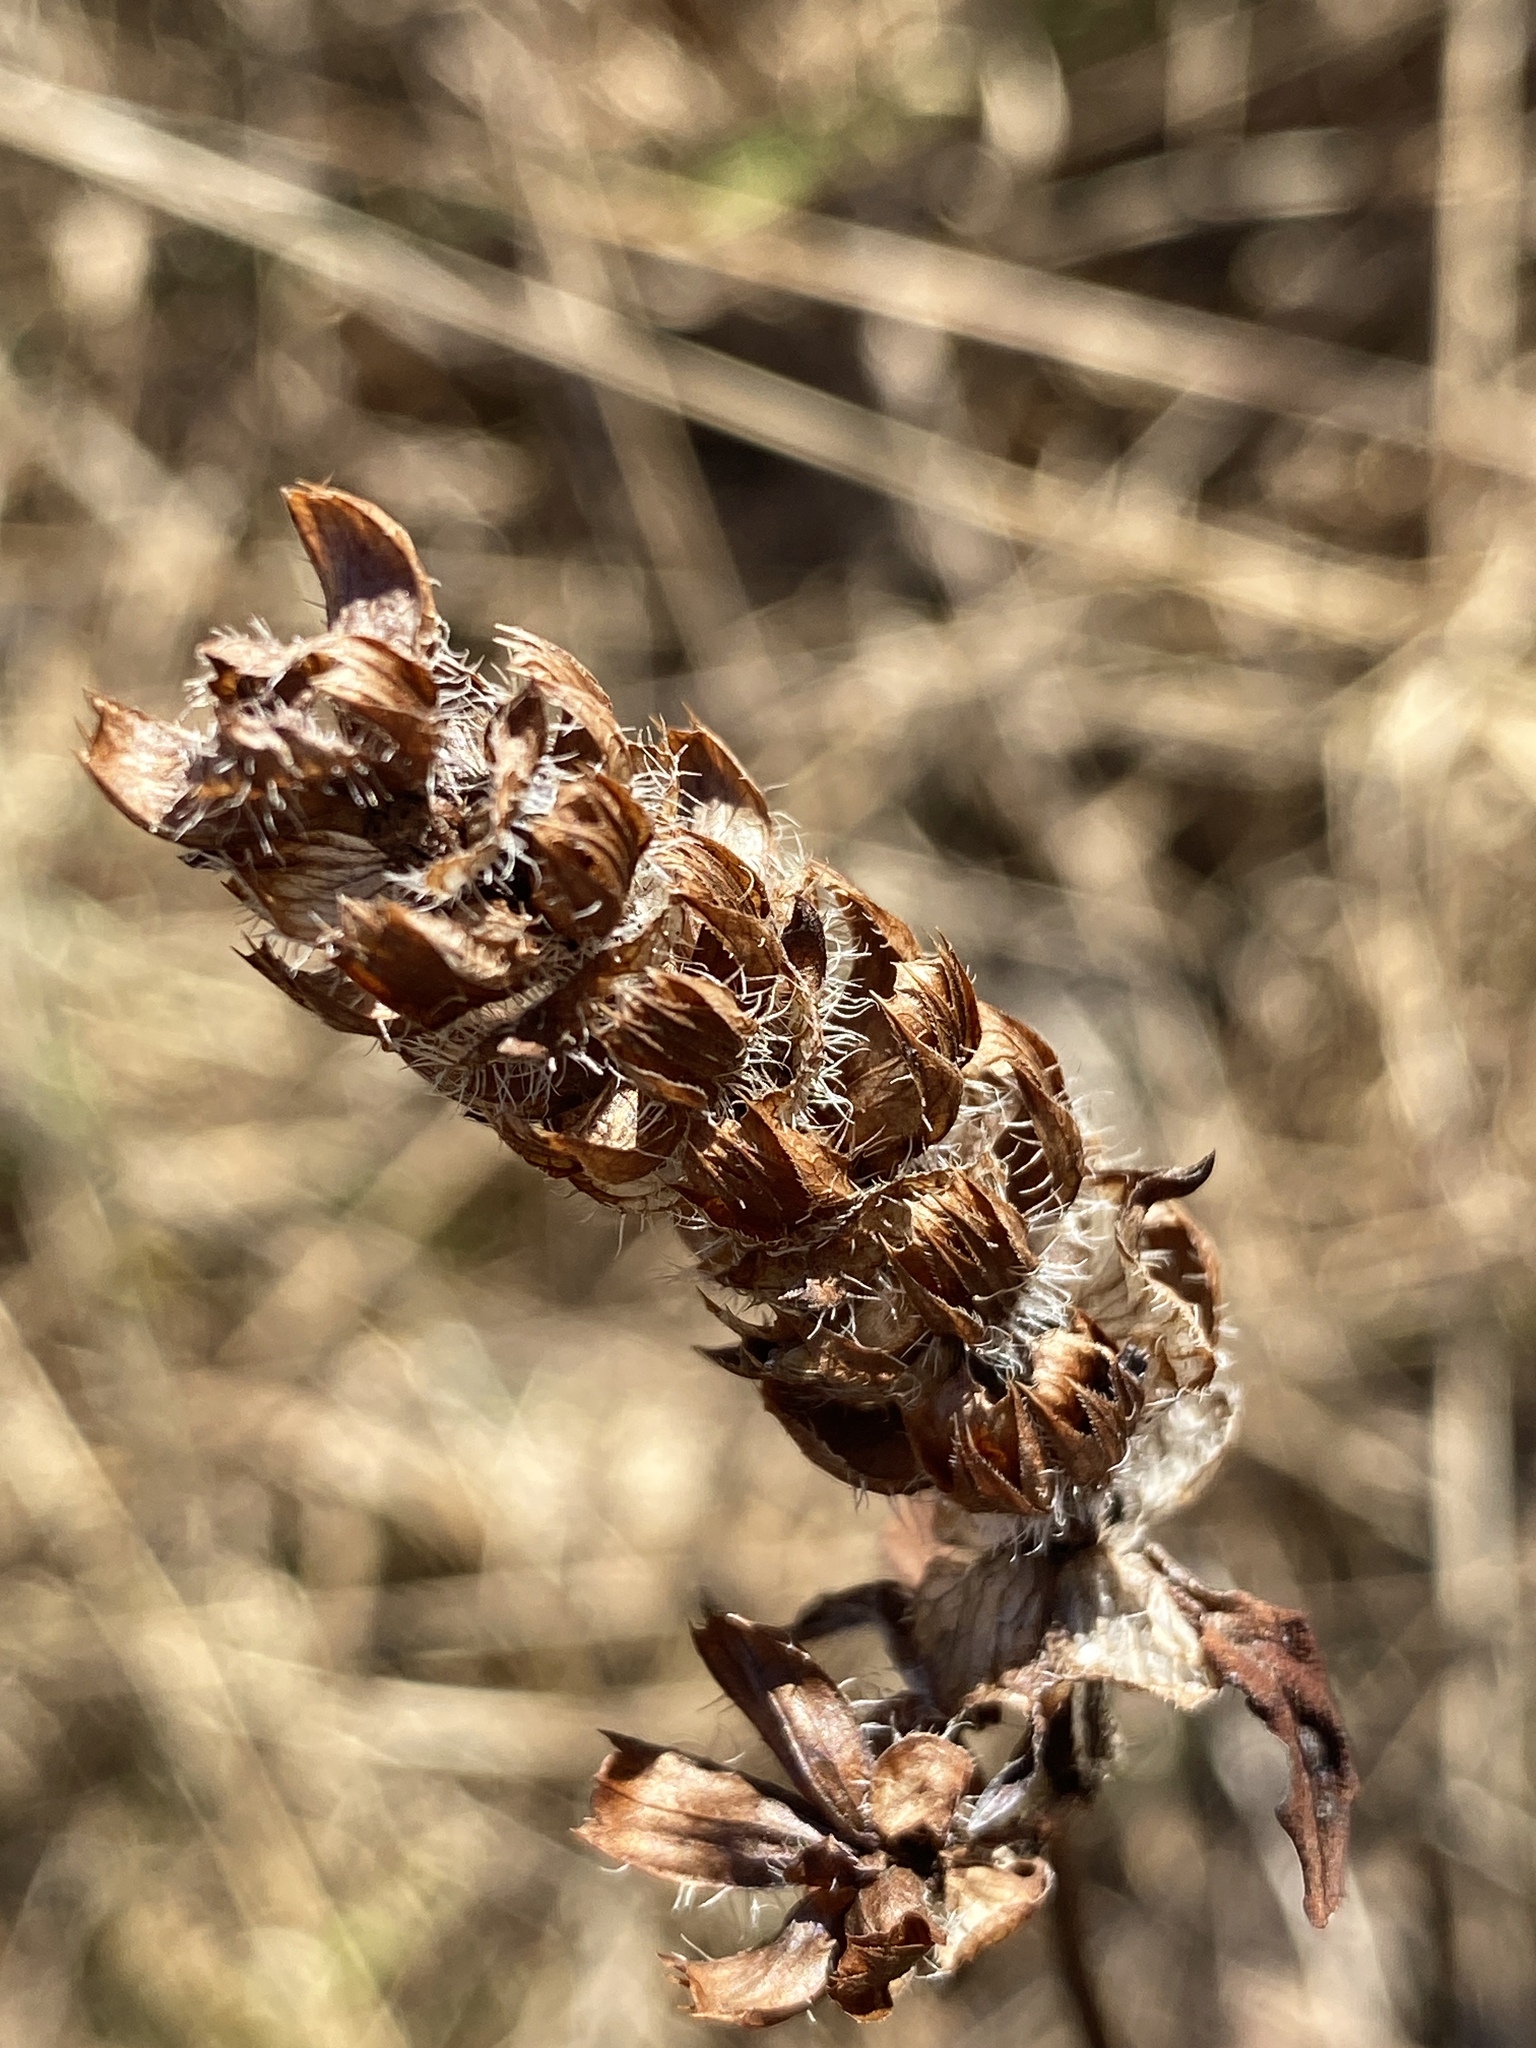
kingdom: Plantae
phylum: Tracheophyta
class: Magnoliopsida
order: Lamiales
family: Lamiaceae
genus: Prunella
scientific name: Prunella vulgaris
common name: Heal-all
